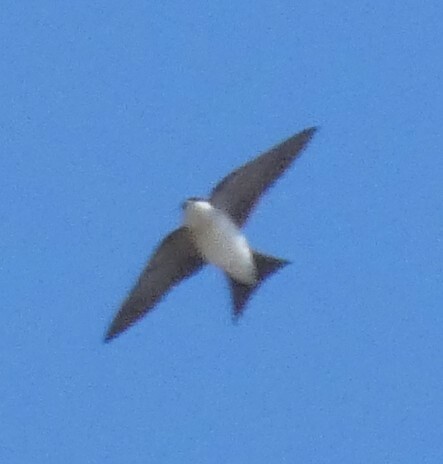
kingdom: Animalia
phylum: Chordata
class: Aves
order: Passeriformes
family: Hirundinidae
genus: Delichon
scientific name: Delichon urbicum
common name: Common house martin
